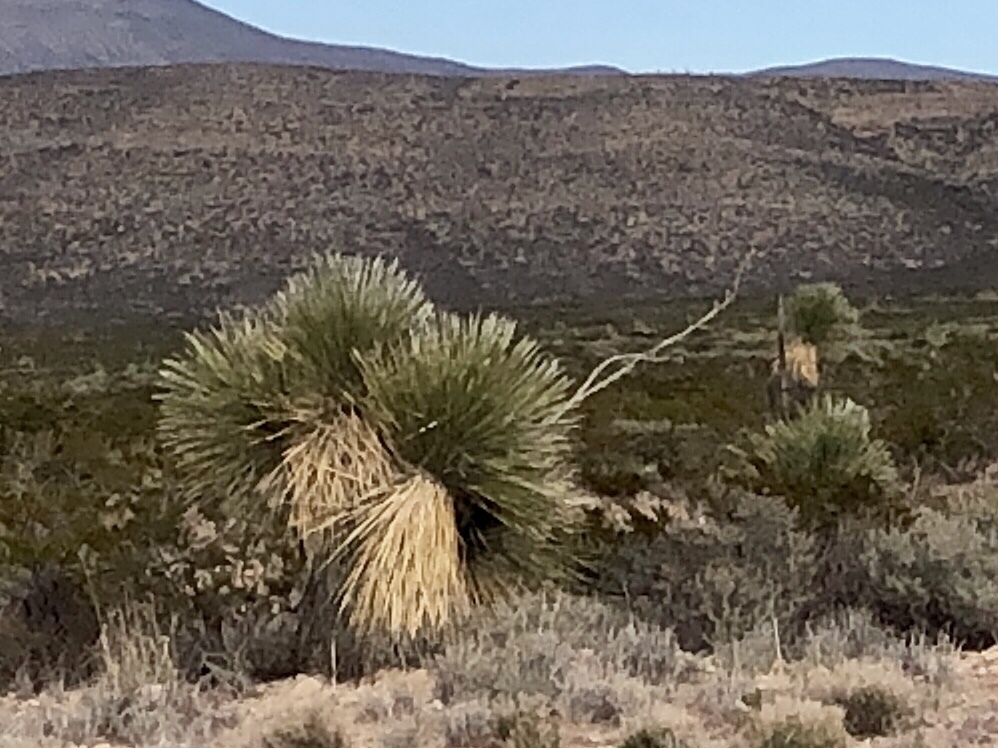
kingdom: Plantae
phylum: Tracheophyta
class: Liliopsida
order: Asparagales
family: Asparagaceae
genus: Yucca
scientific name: Yucca elata
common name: Palmella
